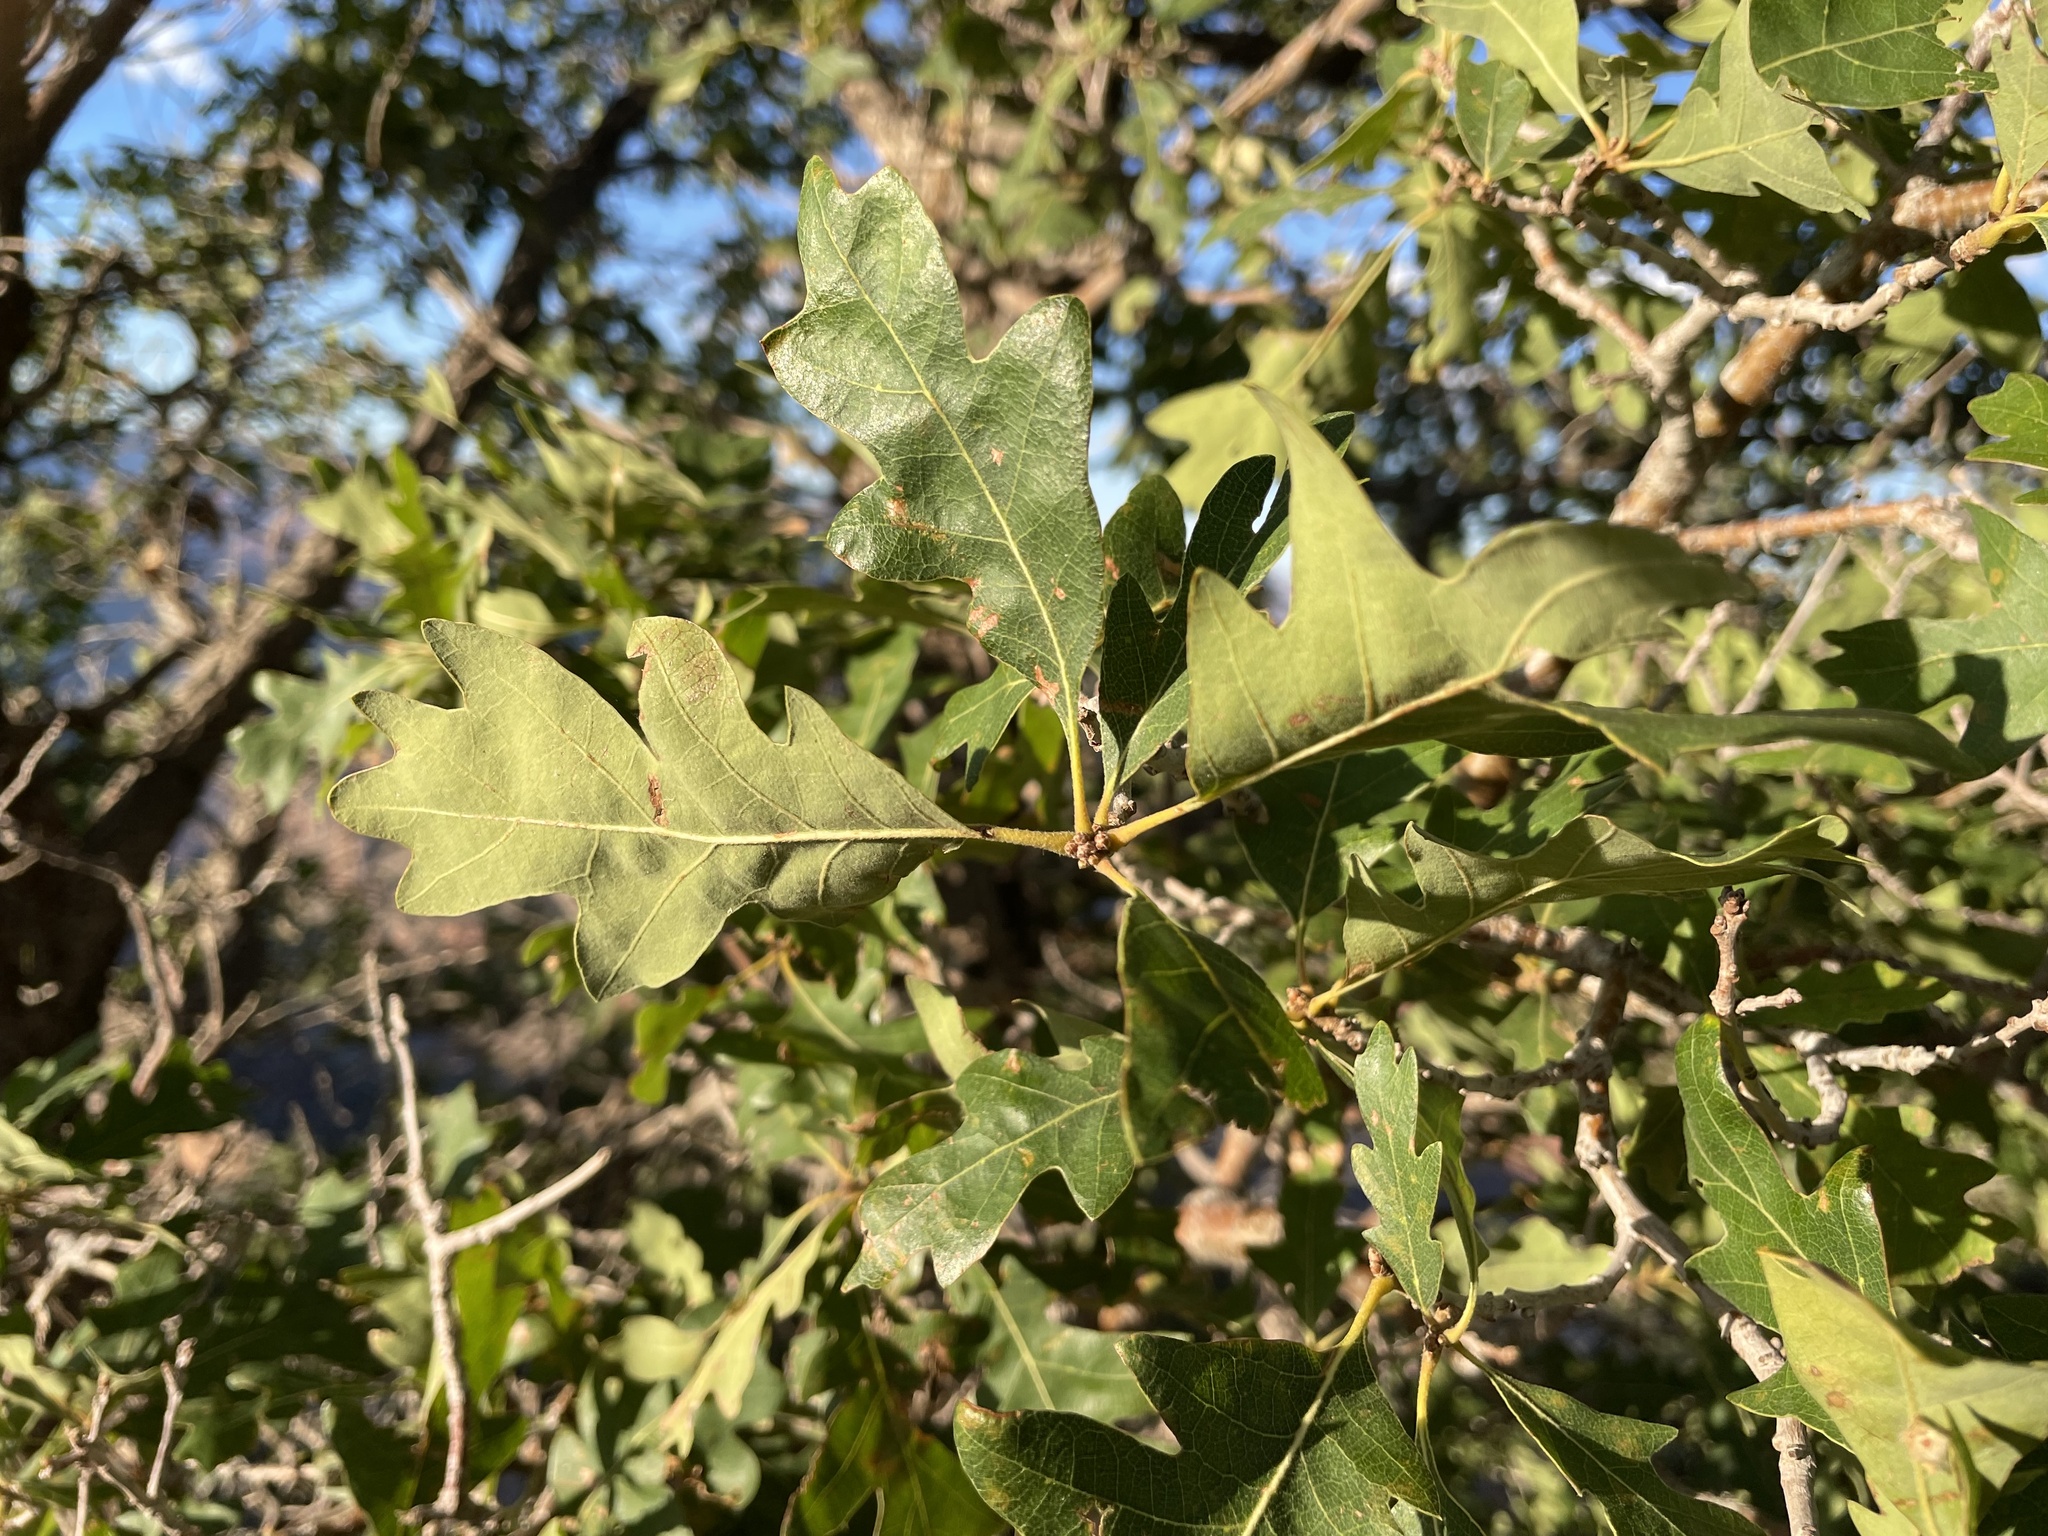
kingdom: Plantae
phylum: Tracheophyta
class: Magnoliopsida
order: Fagales
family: Fagaceae
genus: Quercus
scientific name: Quercus gambelii
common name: Gambel oak
